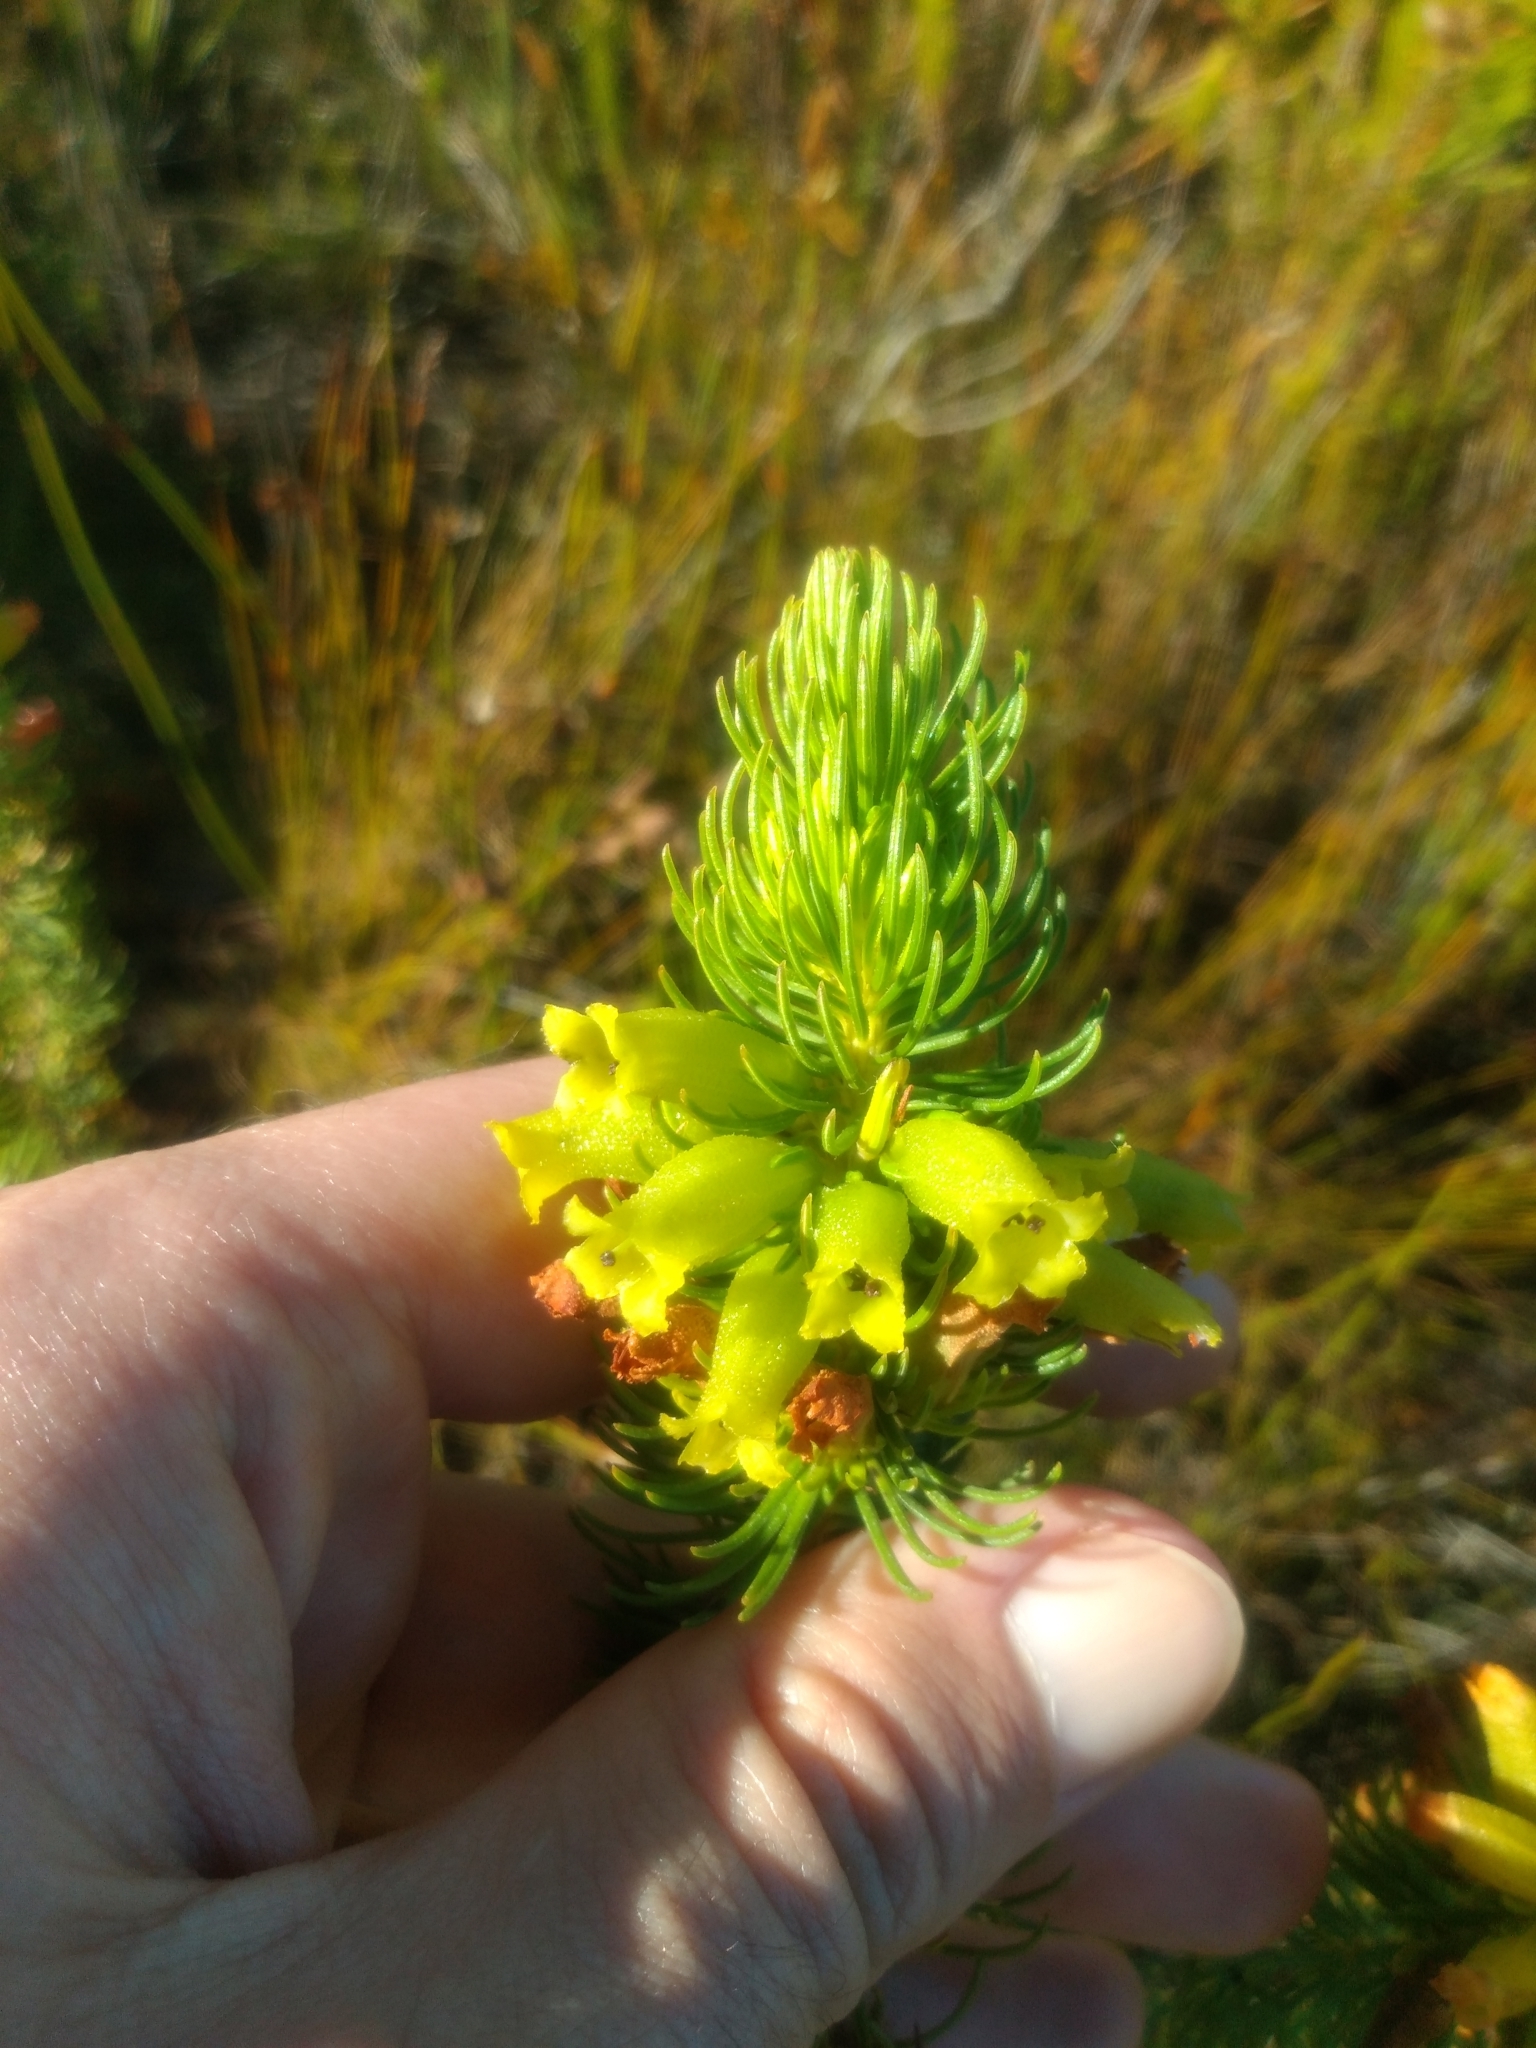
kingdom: Plantae
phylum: Tracheophyta
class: Magnoliopsida
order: Ericales
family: Ericaceae
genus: Erica
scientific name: Erica viscaria
